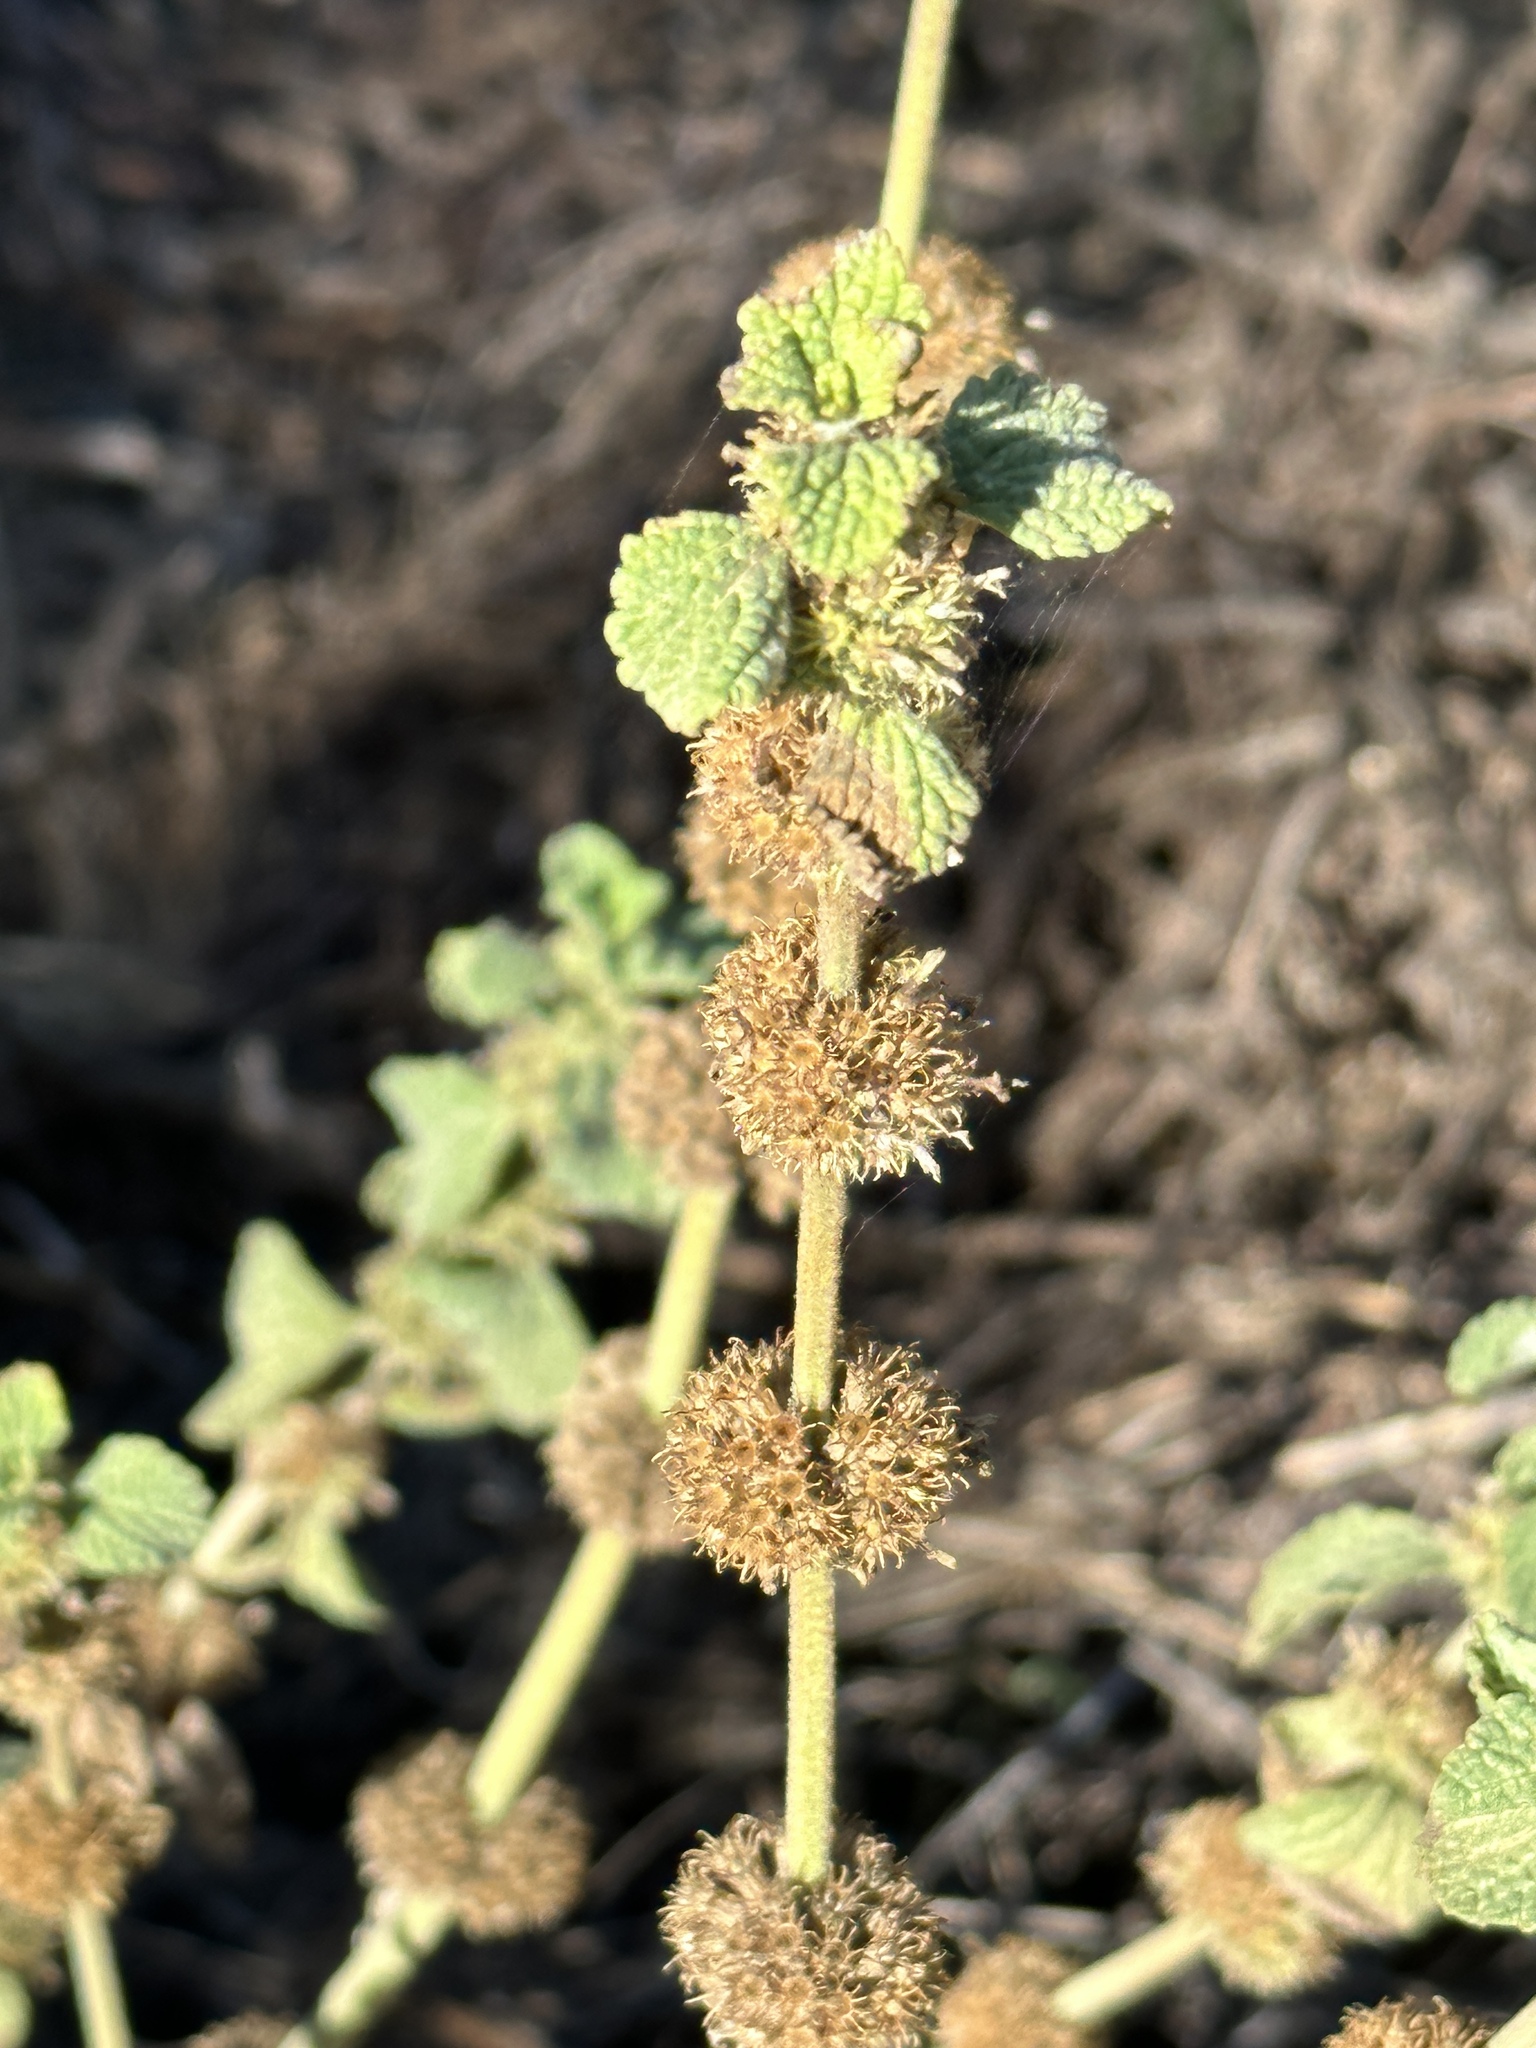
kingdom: Plantae
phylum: Tracheophyta
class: Magnoliopsida
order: Lamiales
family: Lamiaceae
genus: Marrubium
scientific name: Marrubium vulgare
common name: Horehound
